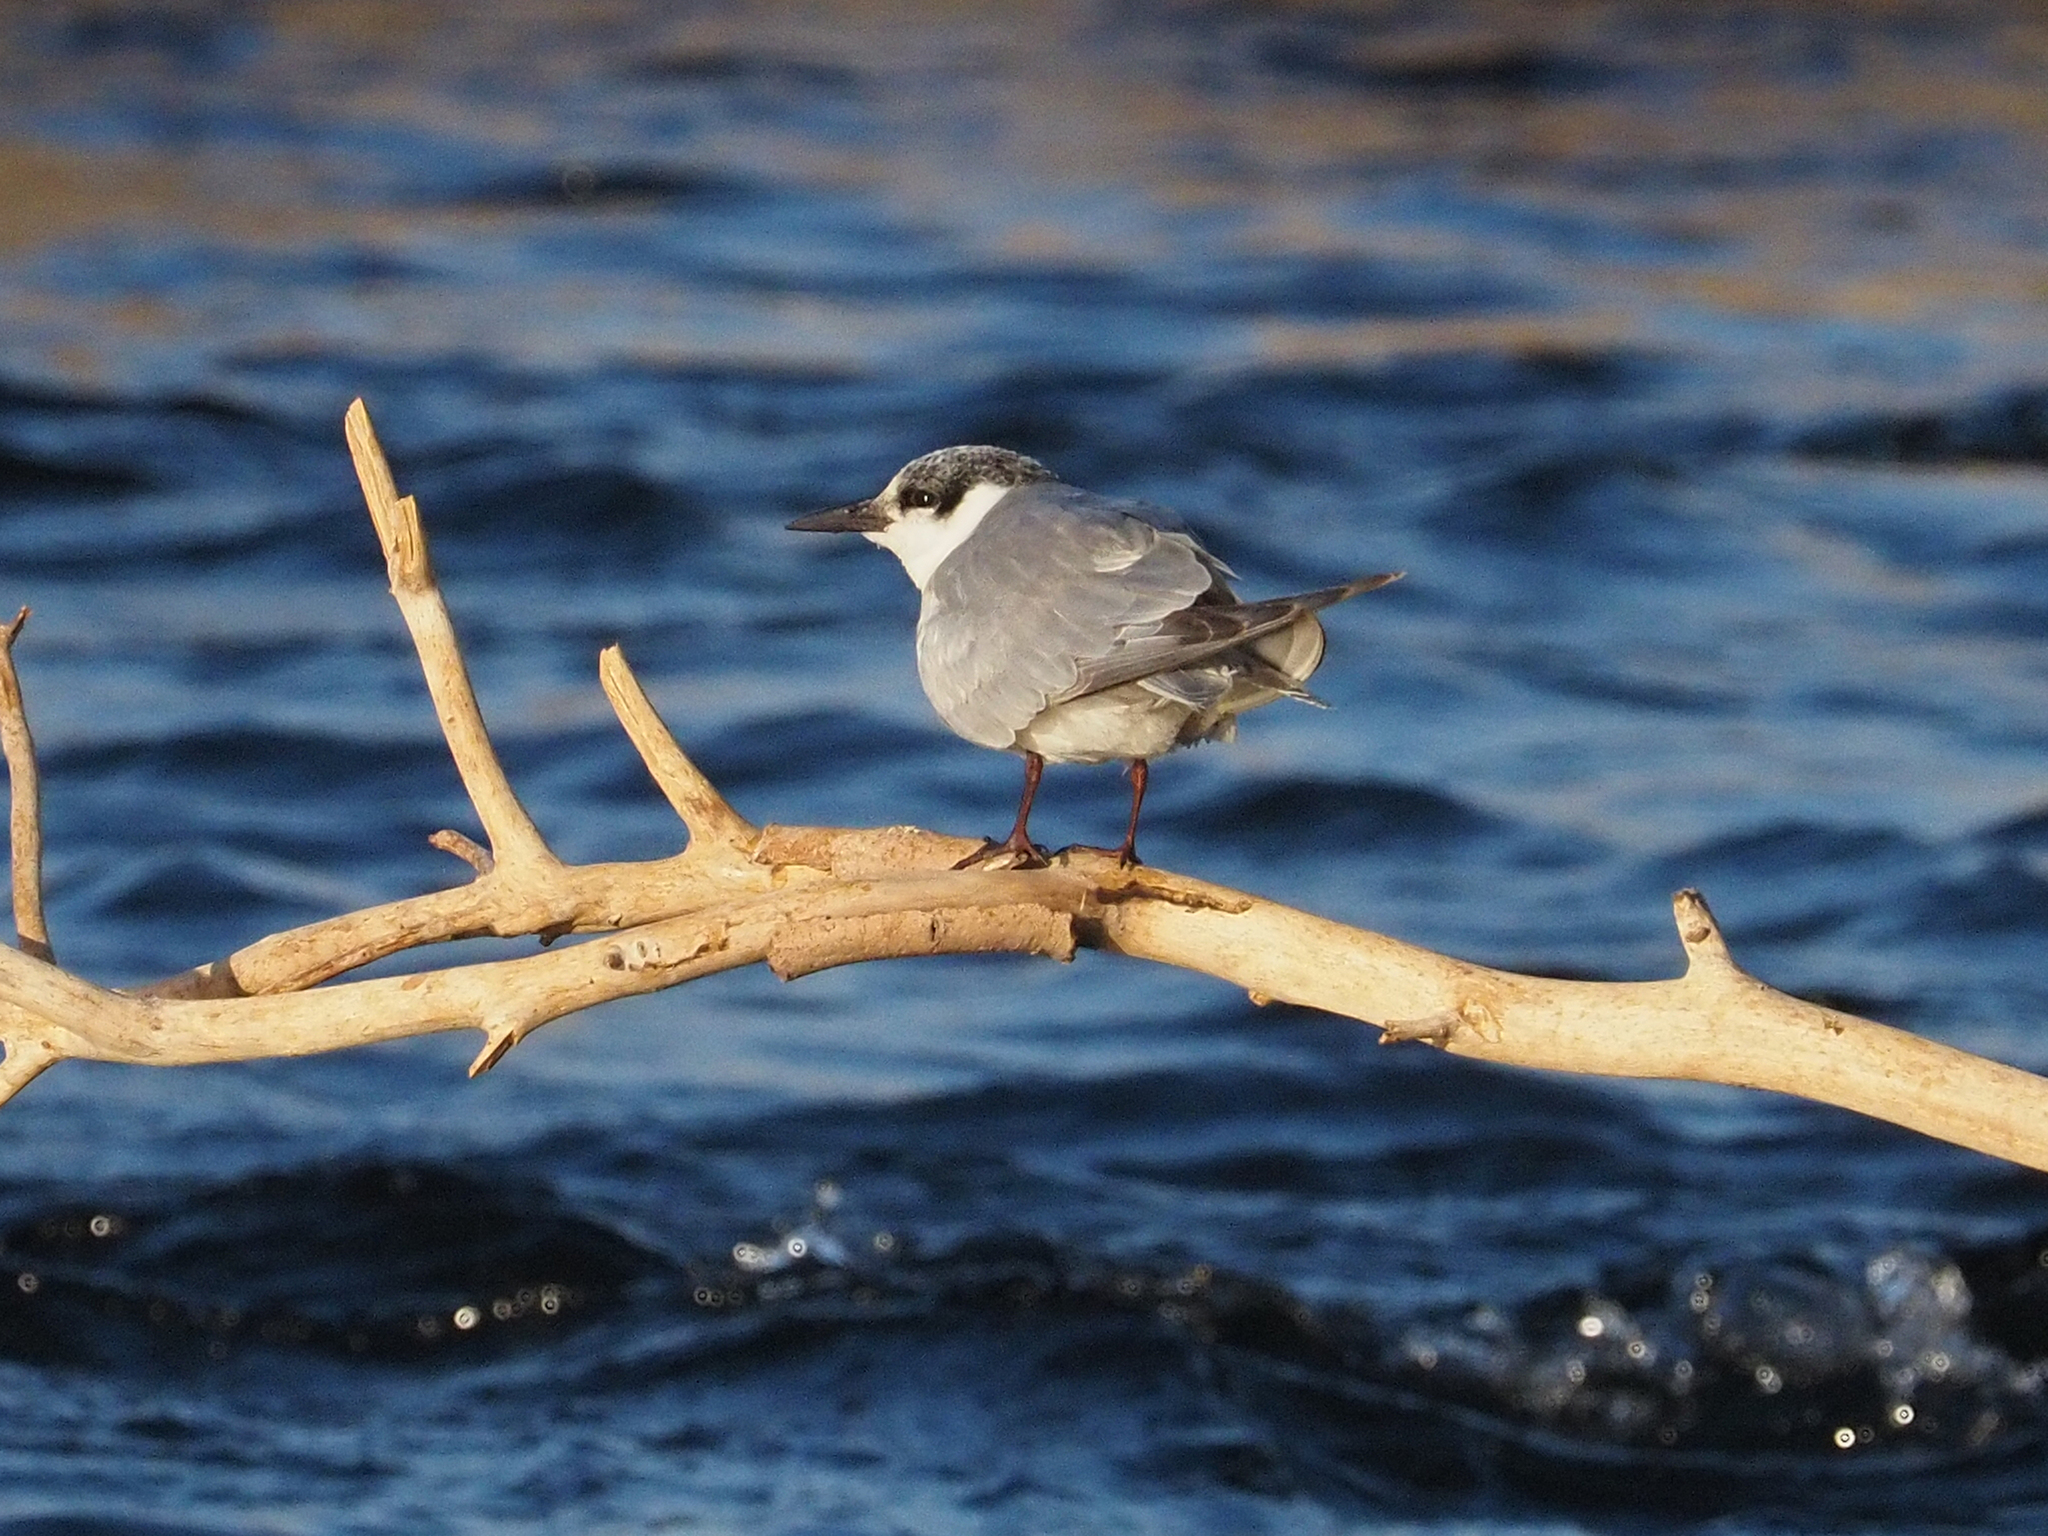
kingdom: Animalia
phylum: Chordata
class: Aves
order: Charadriiformes
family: Laridae
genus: Chlidonias
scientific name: Chlidonias hybrida
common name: Whiskered tern
